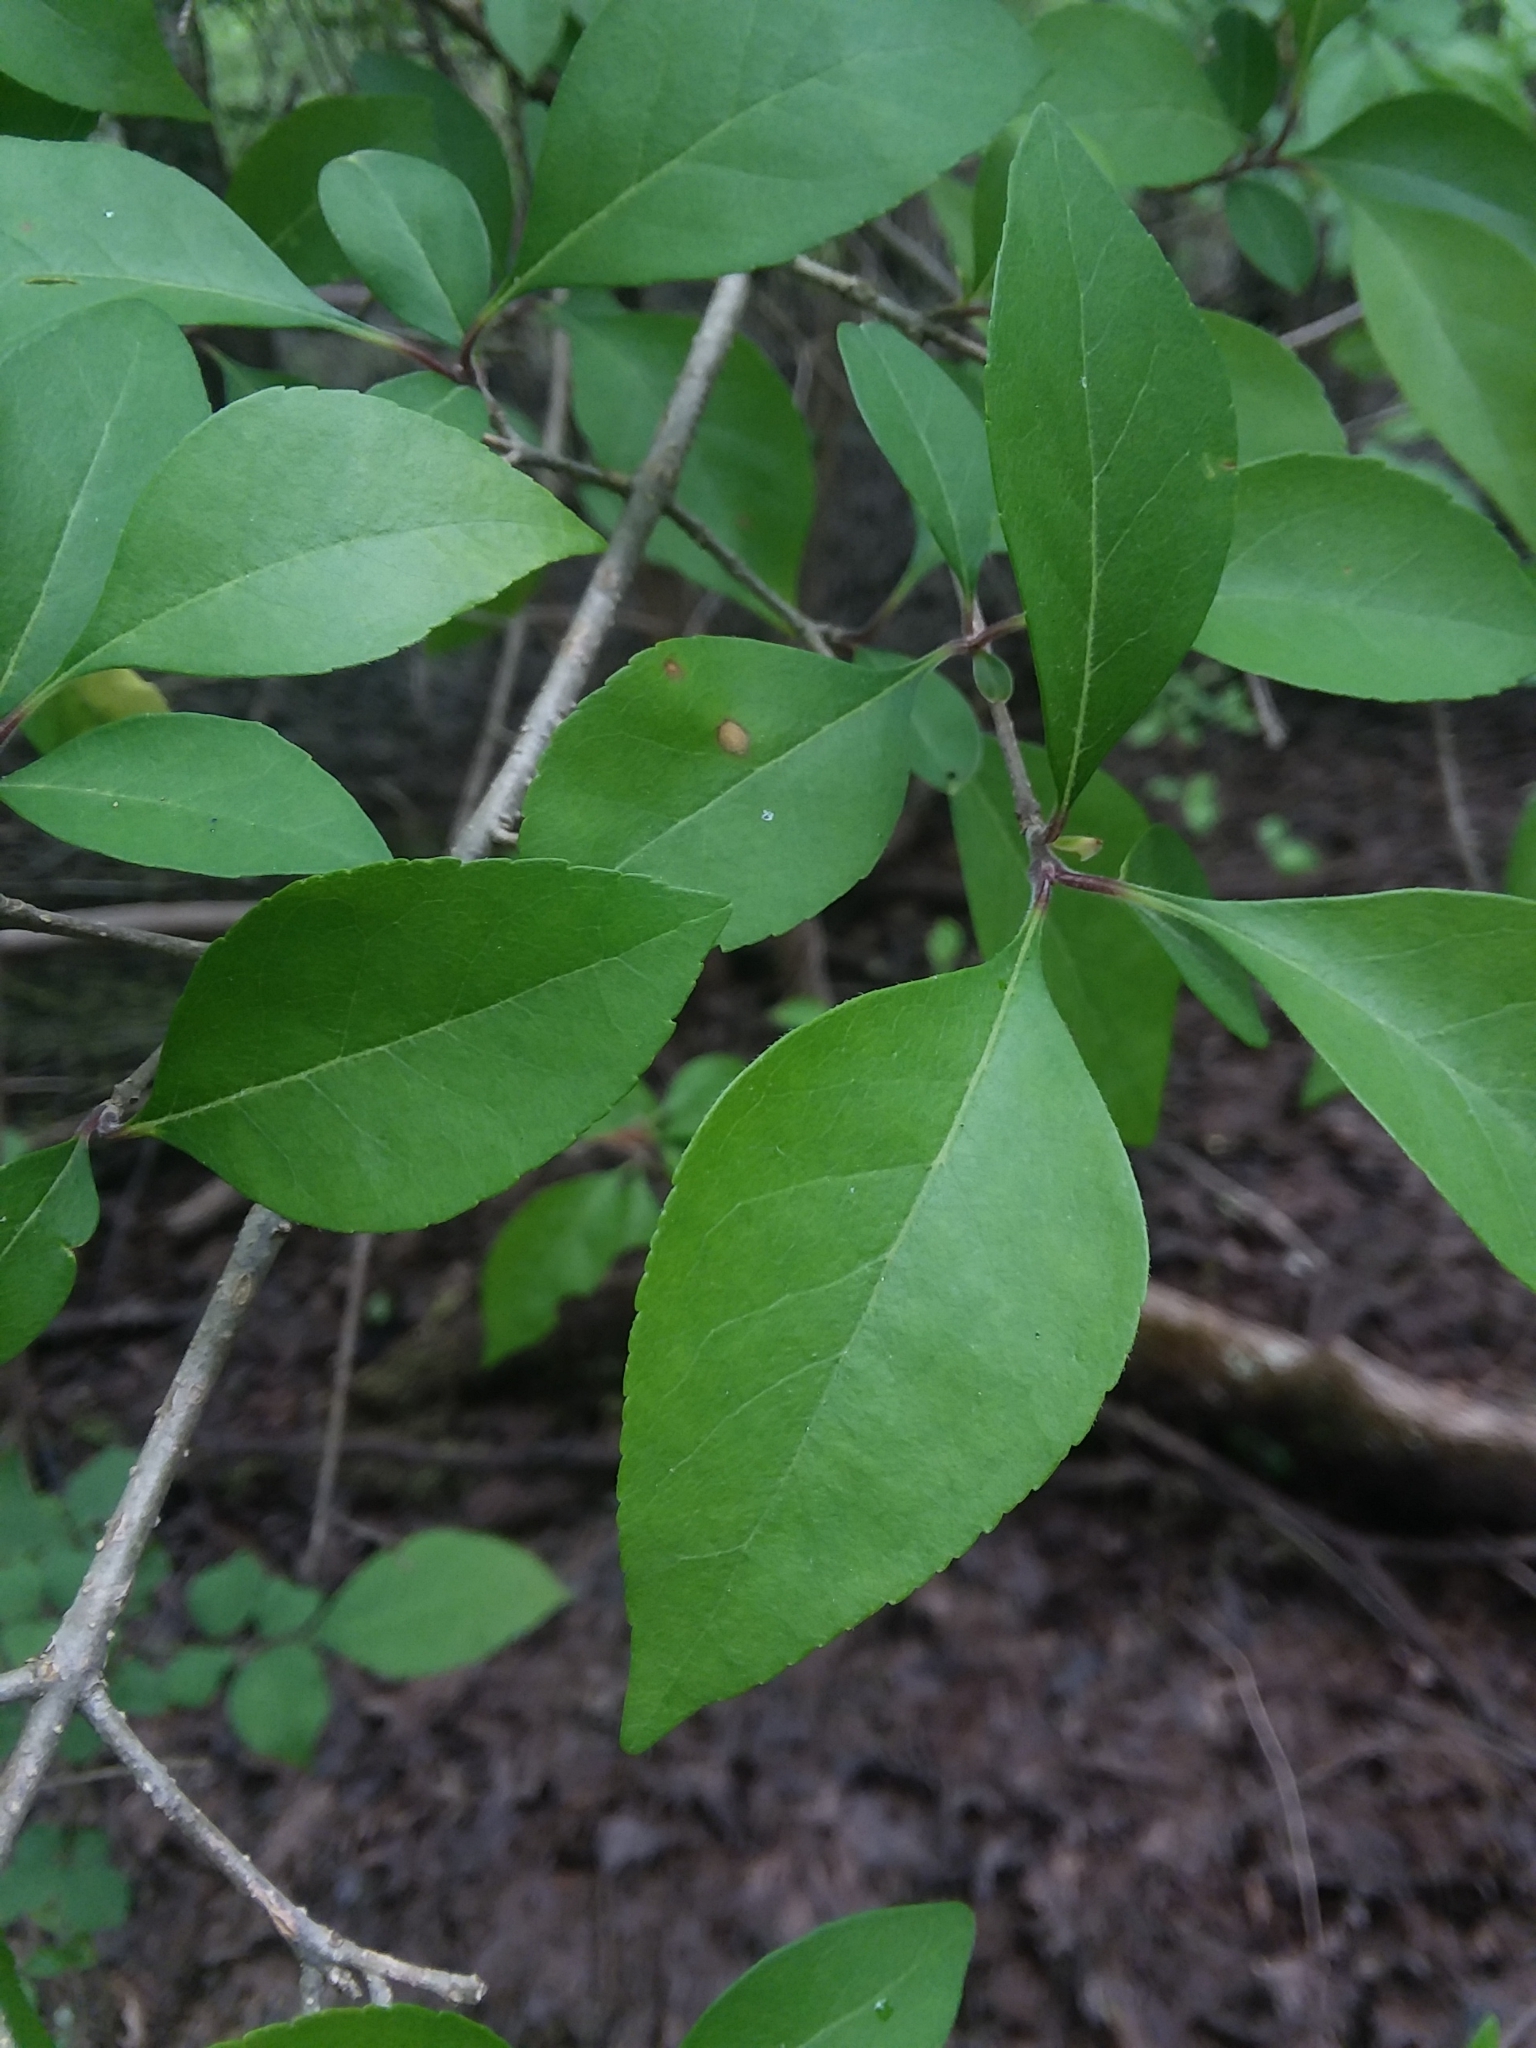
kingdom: Plantae
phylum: Tracheophyta
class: Magnoliopsida
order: Lamiales
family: Oleaceae
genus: Forestiera
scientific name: Forestiera acuminata
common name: Swamp-privet
